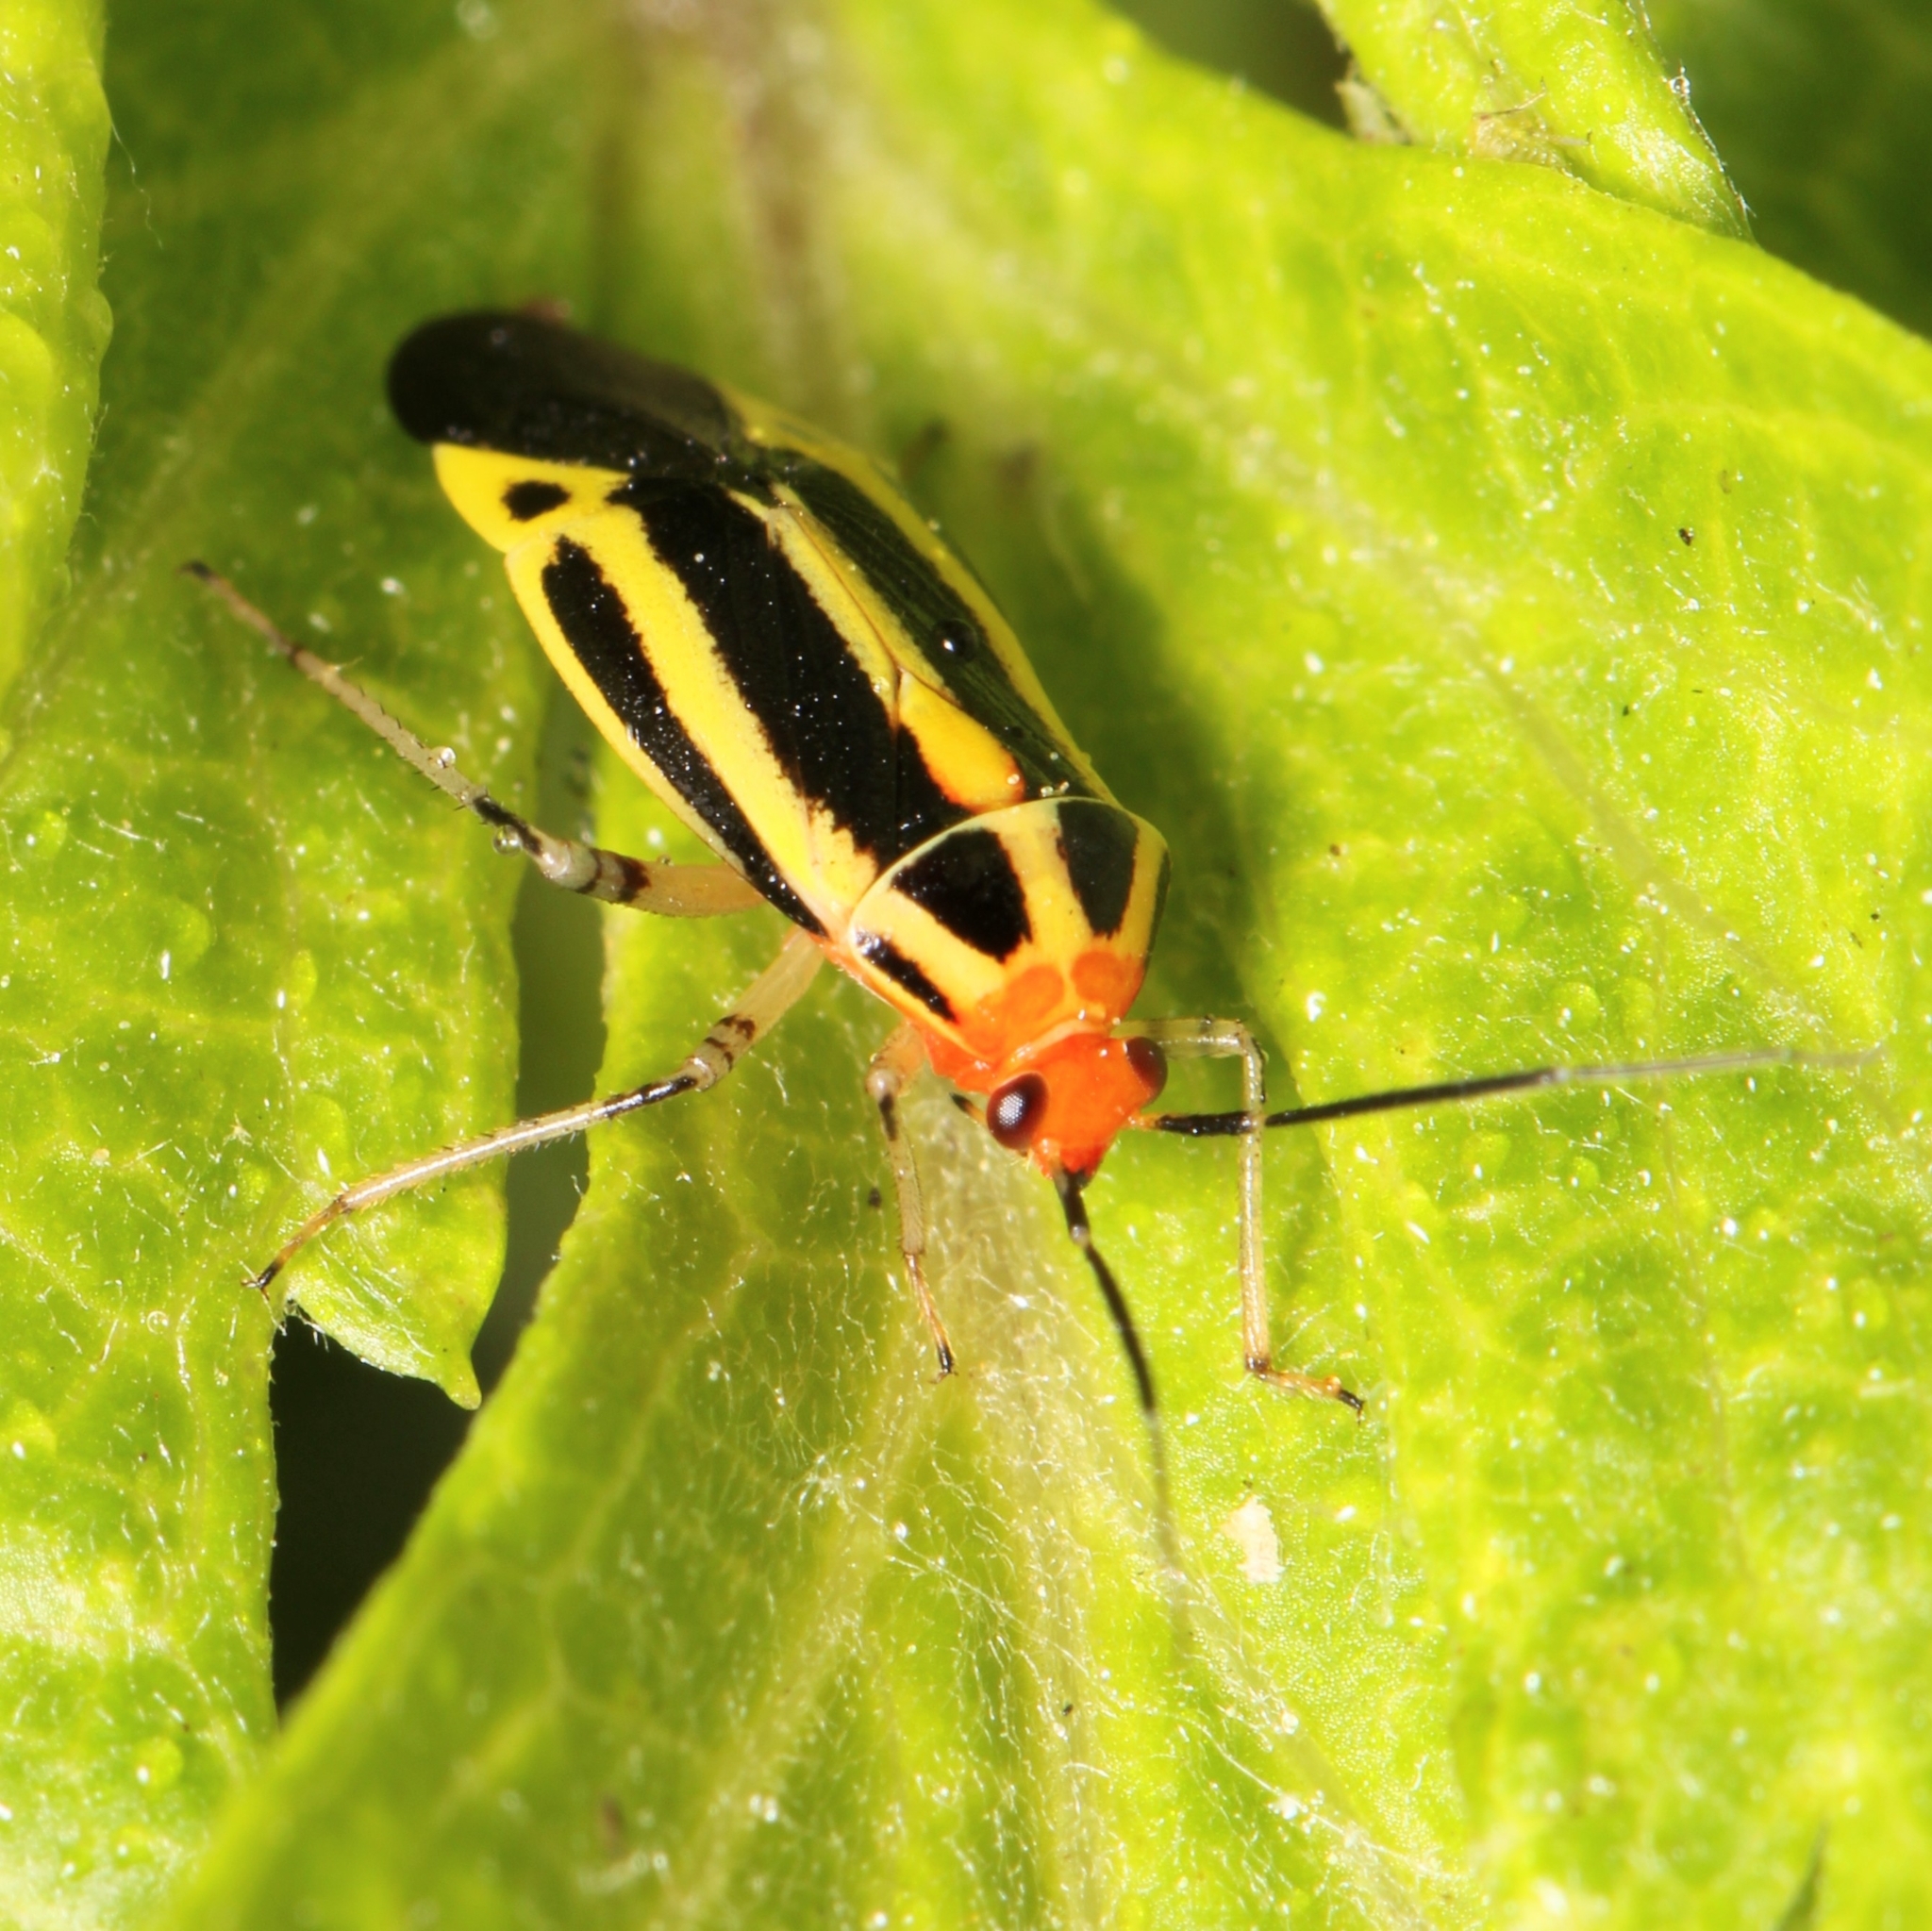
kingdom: Animalia
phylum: Arthropoda
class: Insecta
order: Hemiptera
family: Miridae
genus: Poecilocapsus
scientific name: Poecilocapsus lineatus
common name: Four-lined plant bug
